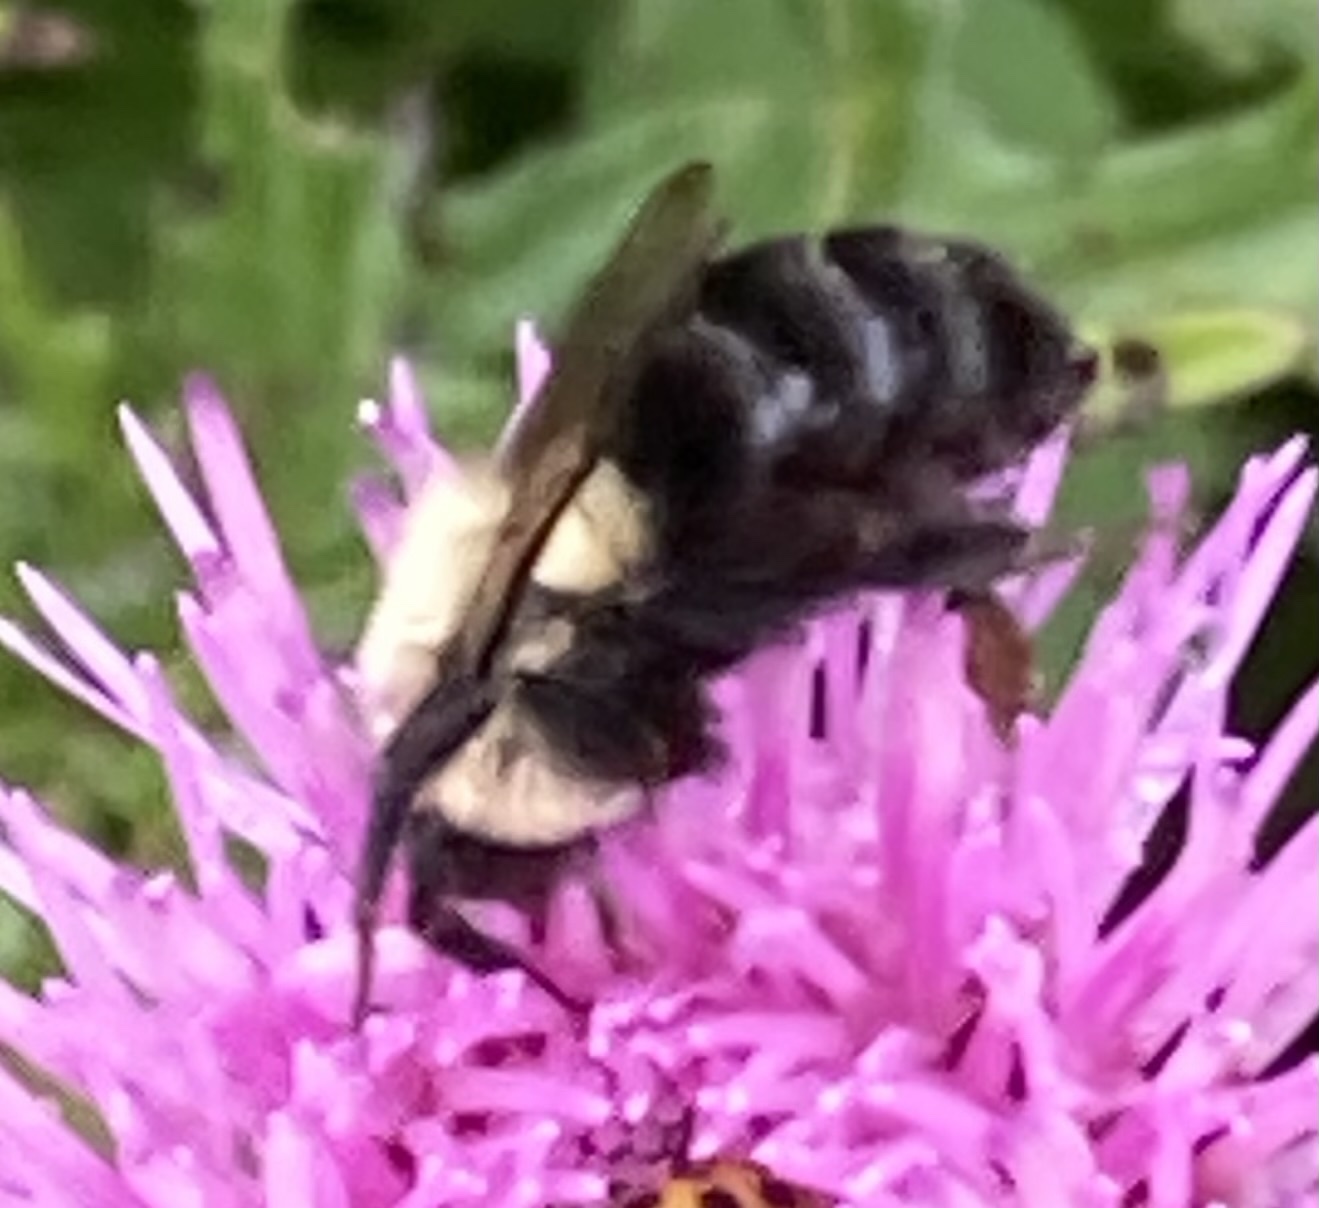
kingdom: Animalia
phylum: Arthropoda
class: Insecta
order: Hymenoptera
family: Apidae
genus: Bombus
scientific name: Bombus impatiens
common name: Common eastern bumble bee
